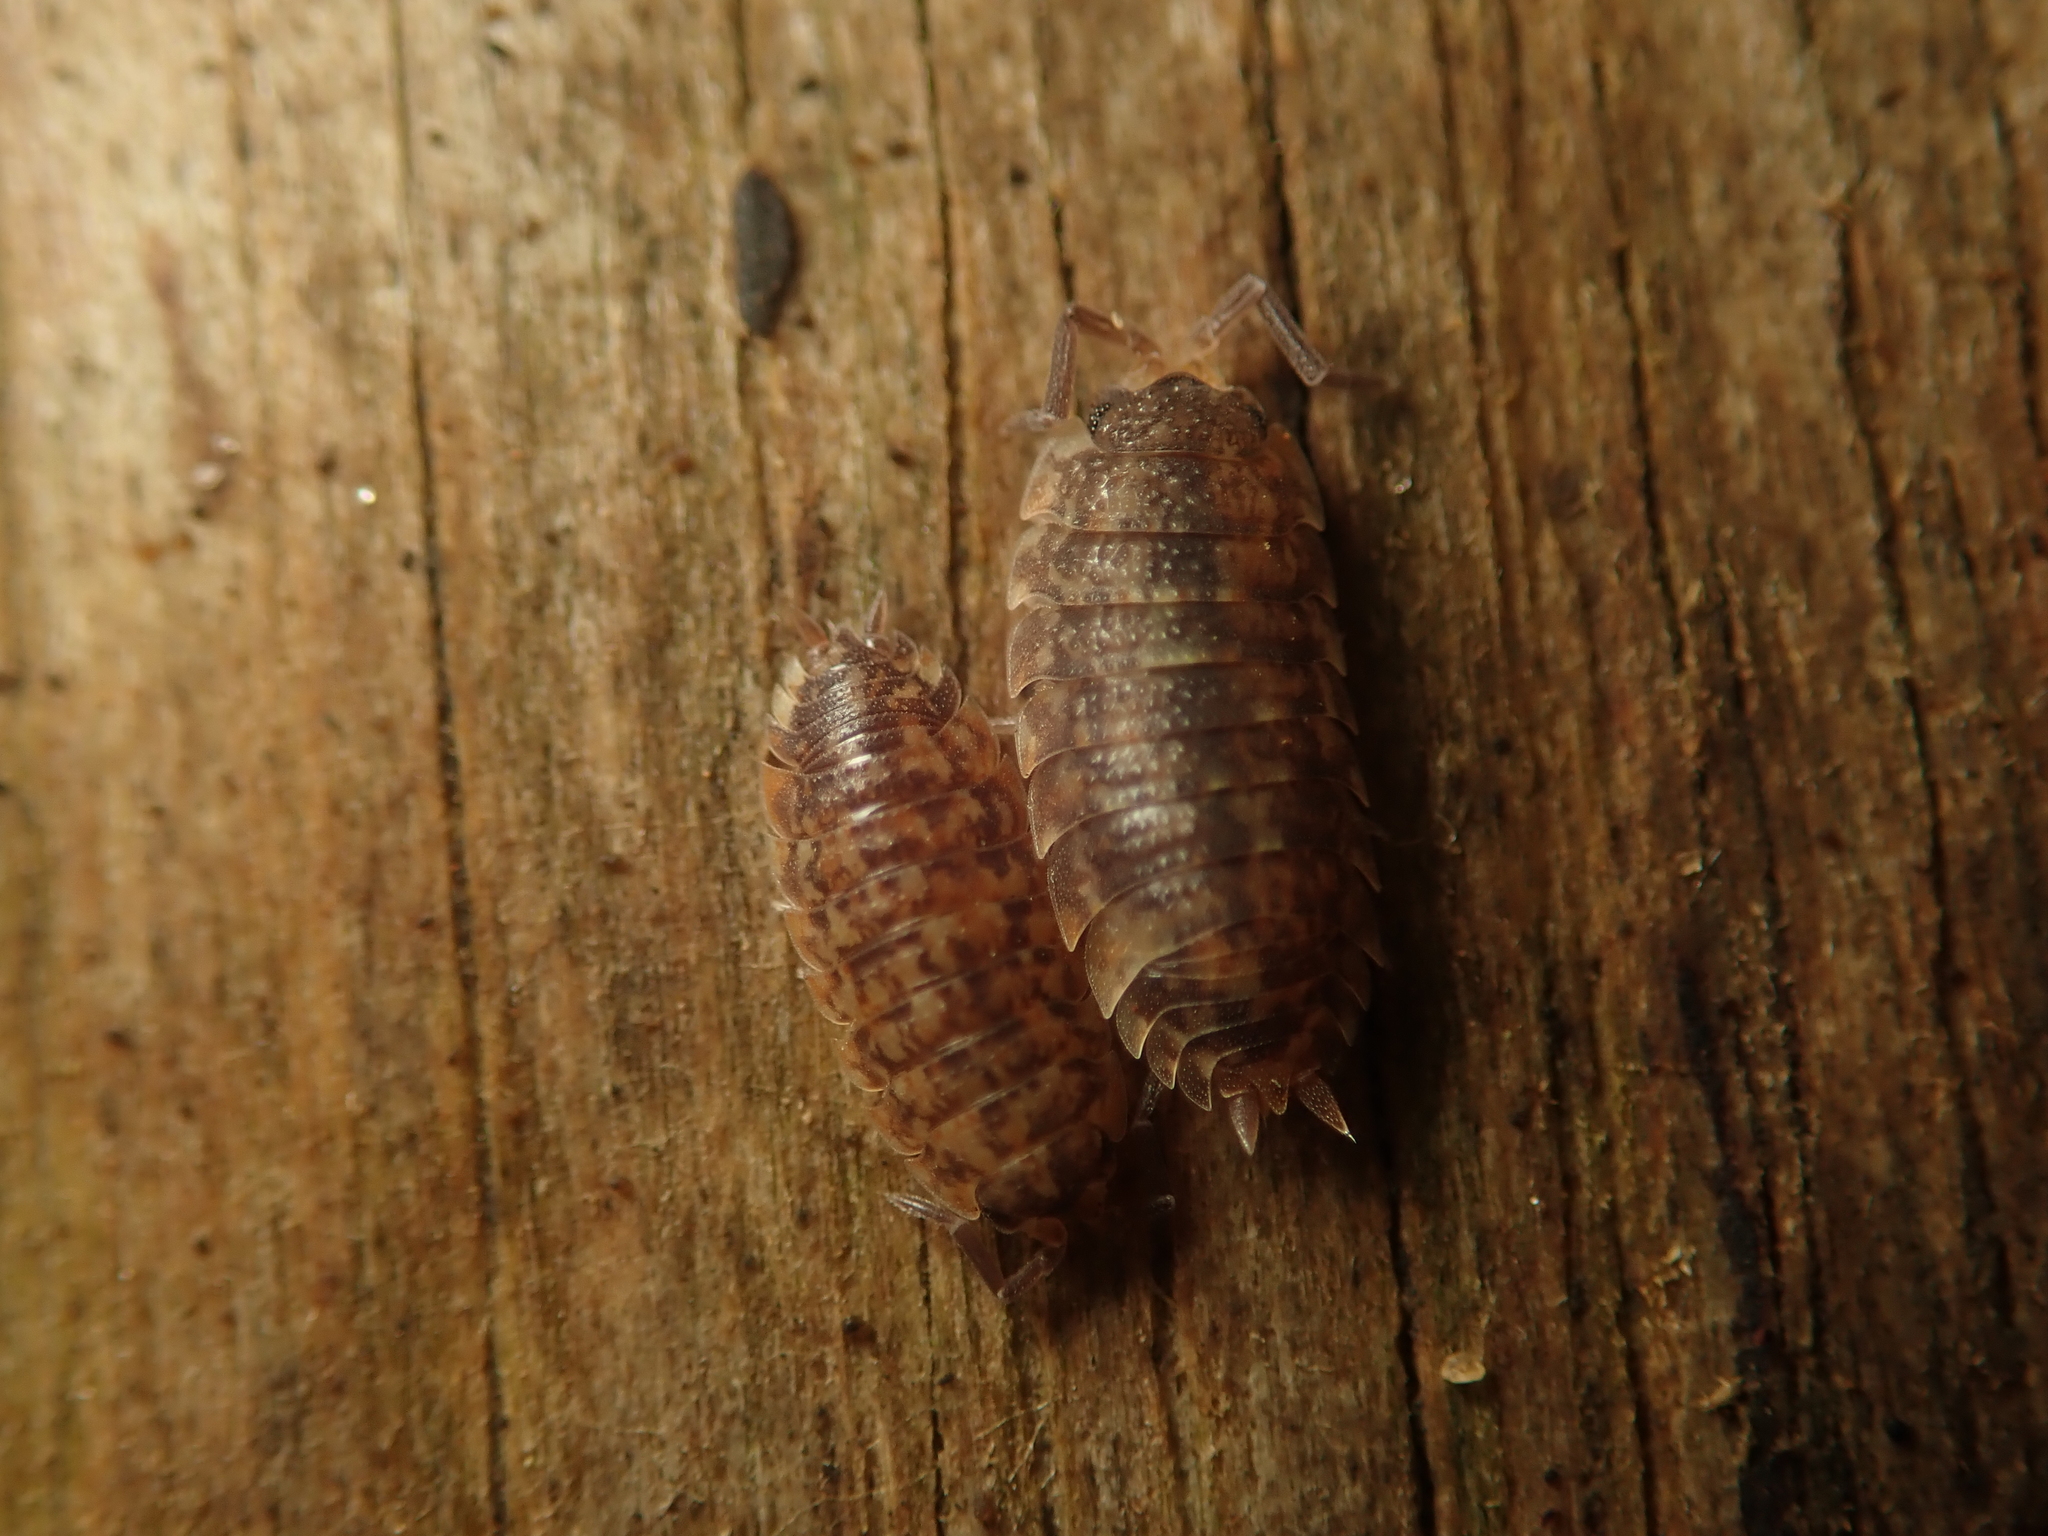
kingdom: Animalia
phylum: Arthropoda
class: Malacostraca
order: Isopoda
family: Porcellionidae
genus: Porcellio
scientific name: Porcellio scaber
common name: Common rough woodlouse
